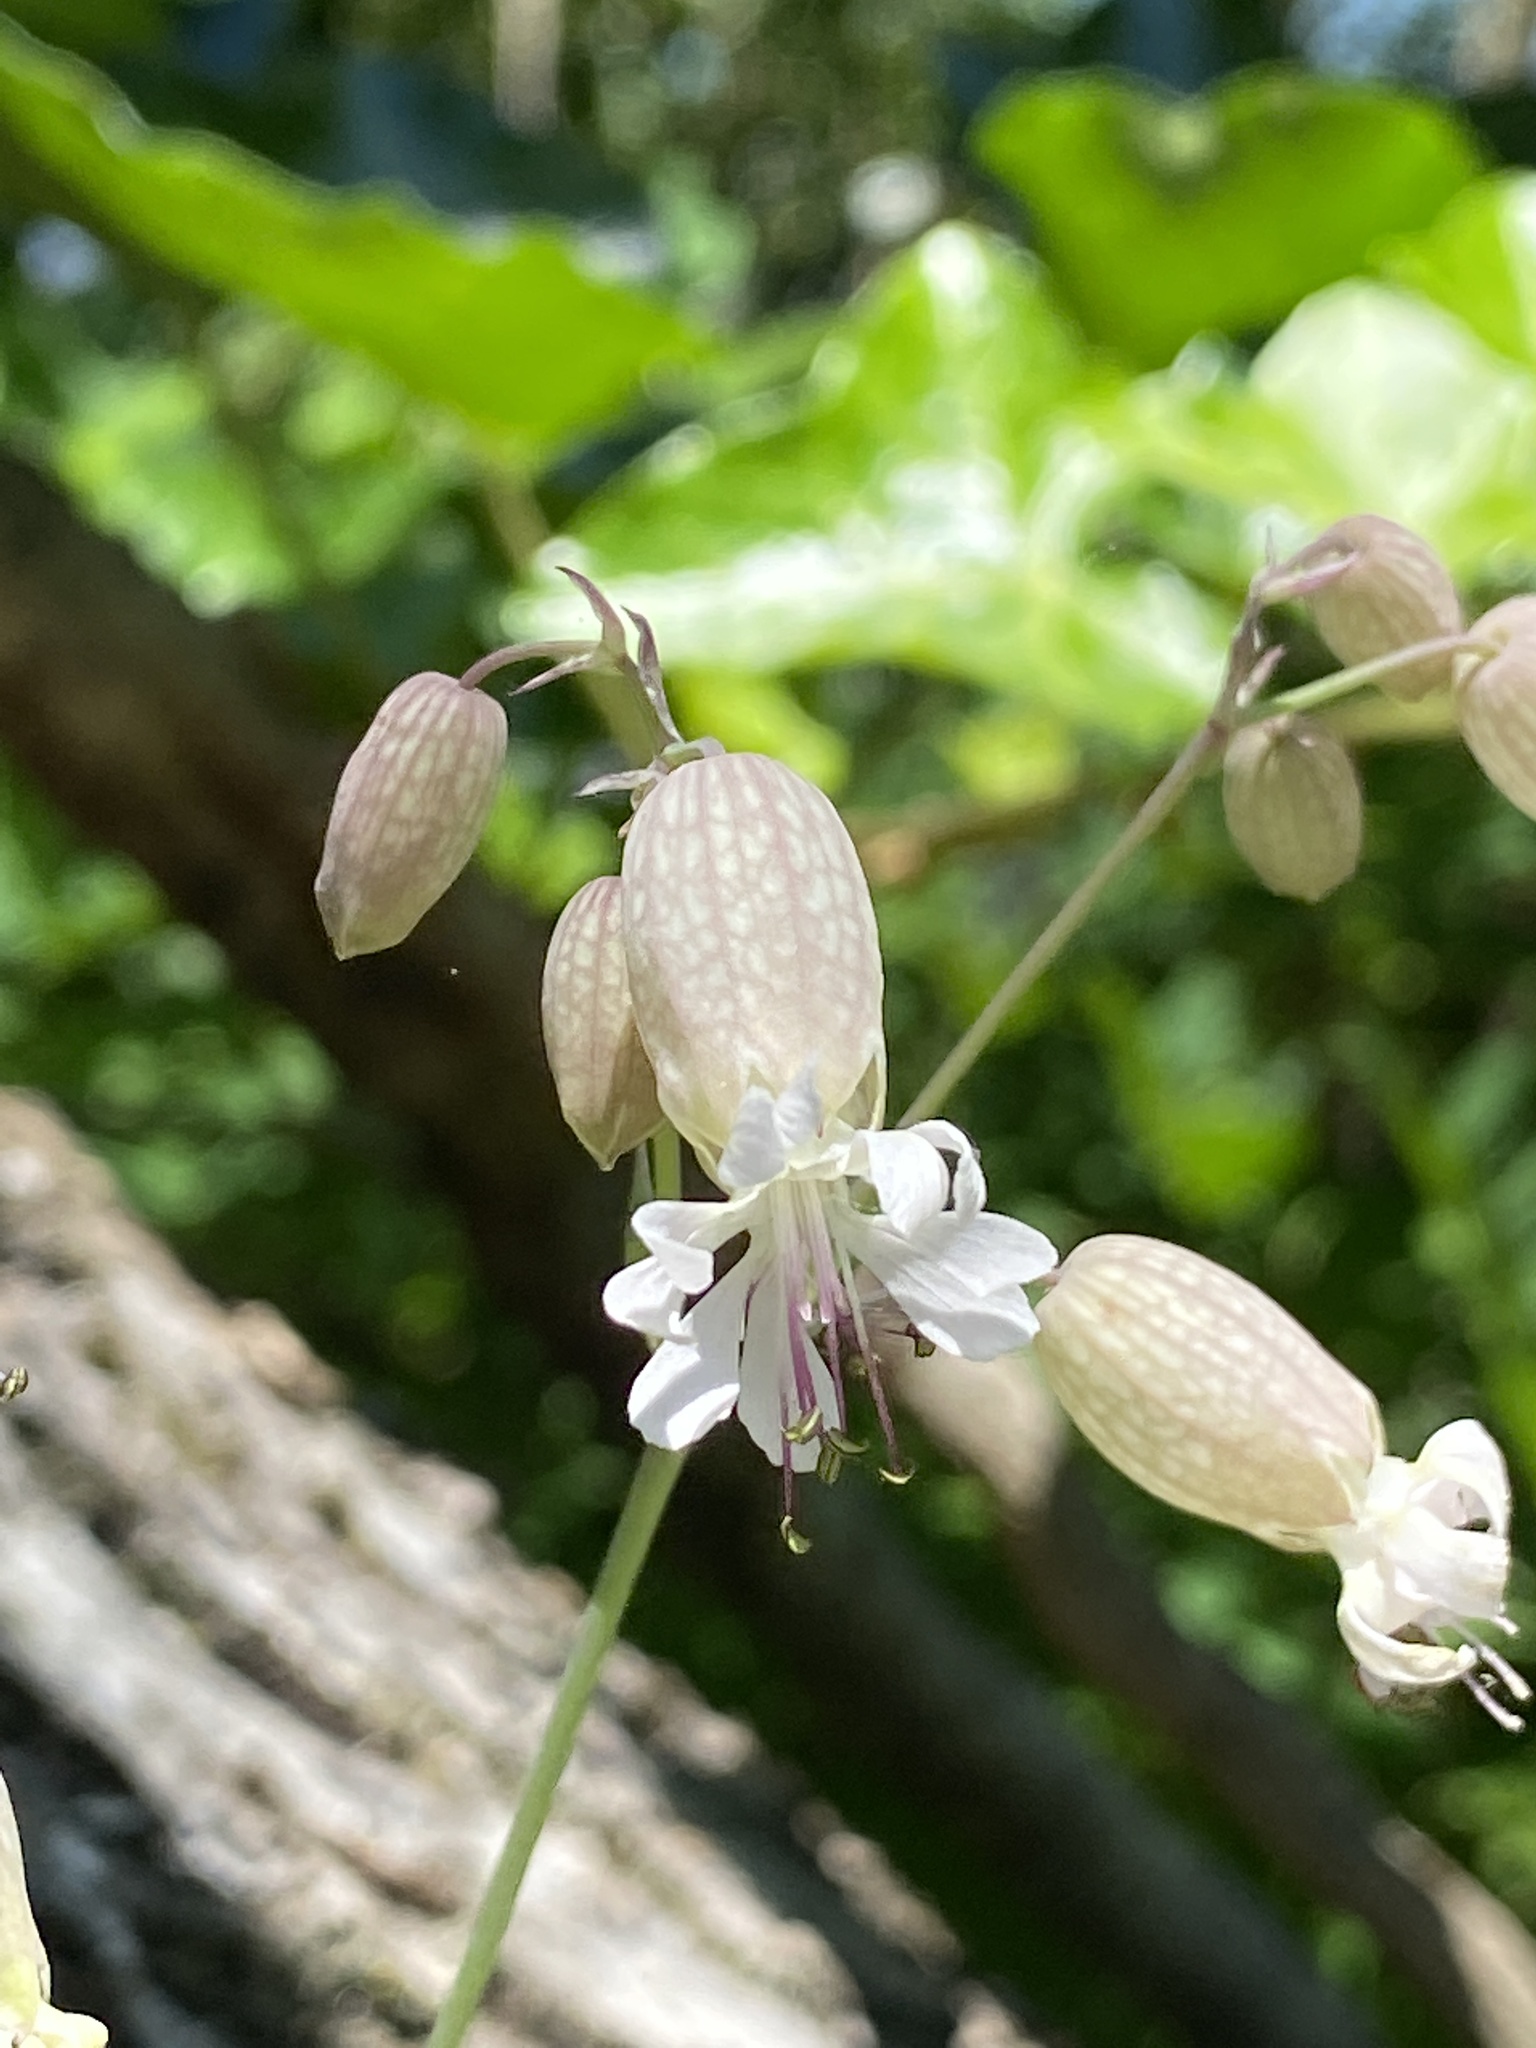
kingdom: Plantae
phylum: Tracheophyta
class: Magnoliopsida
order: Caryophyllales
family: Caryophyllaceae
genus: Silene
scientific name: Silene vulgaris
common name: Bladder campion
